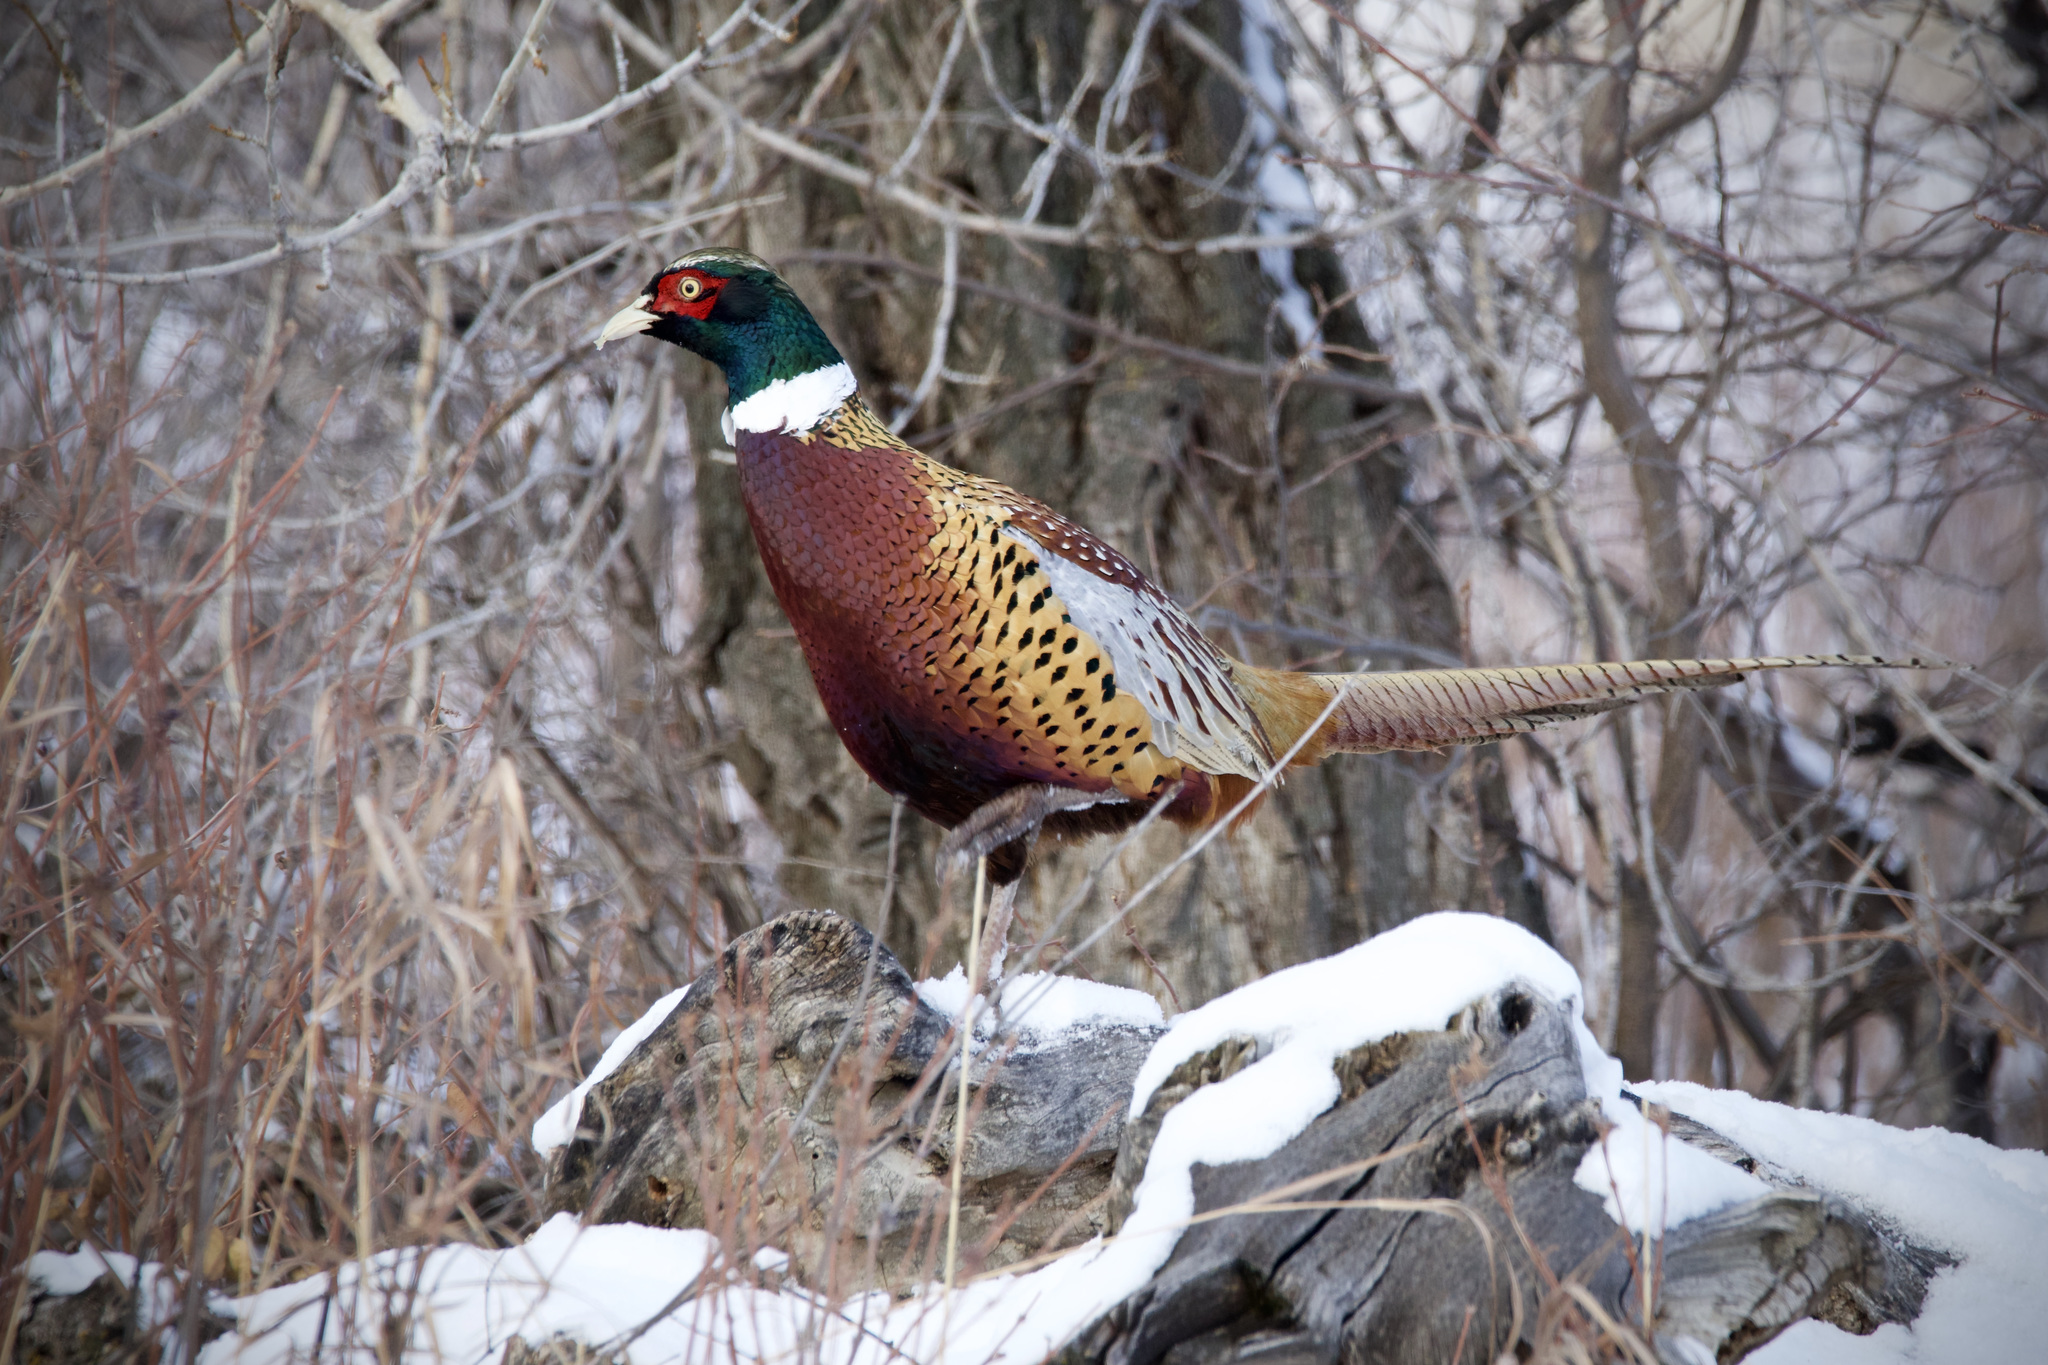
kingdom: Animalia
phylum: Chordata
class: Aves
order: Galliformes
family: Phasianidae
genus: Phasianus
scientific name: Phasianus colchicus
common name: Common pheasant
